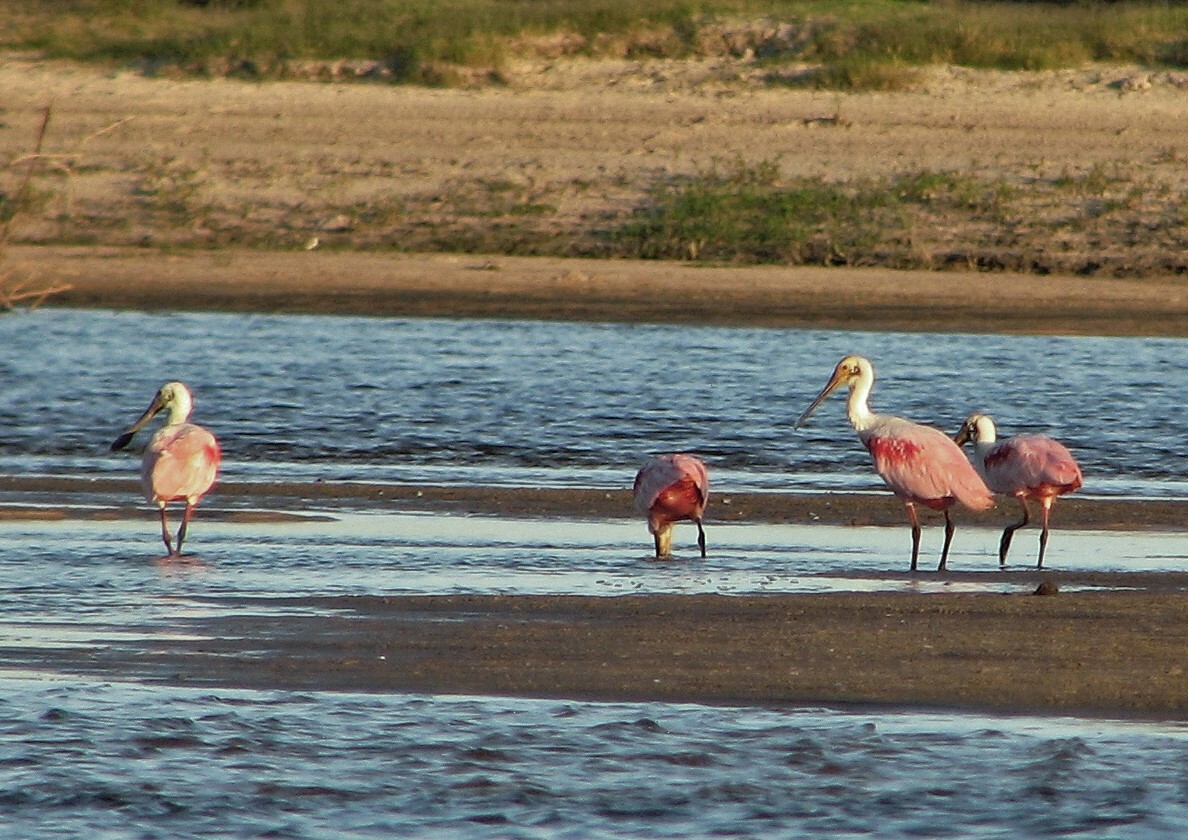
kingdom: Animalia
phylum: Chordata
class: Aves
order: Pelecaniformes
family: Threskiornithidae
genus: Platalea
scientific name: Platalea ajaja
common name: Roseate spoonbill
